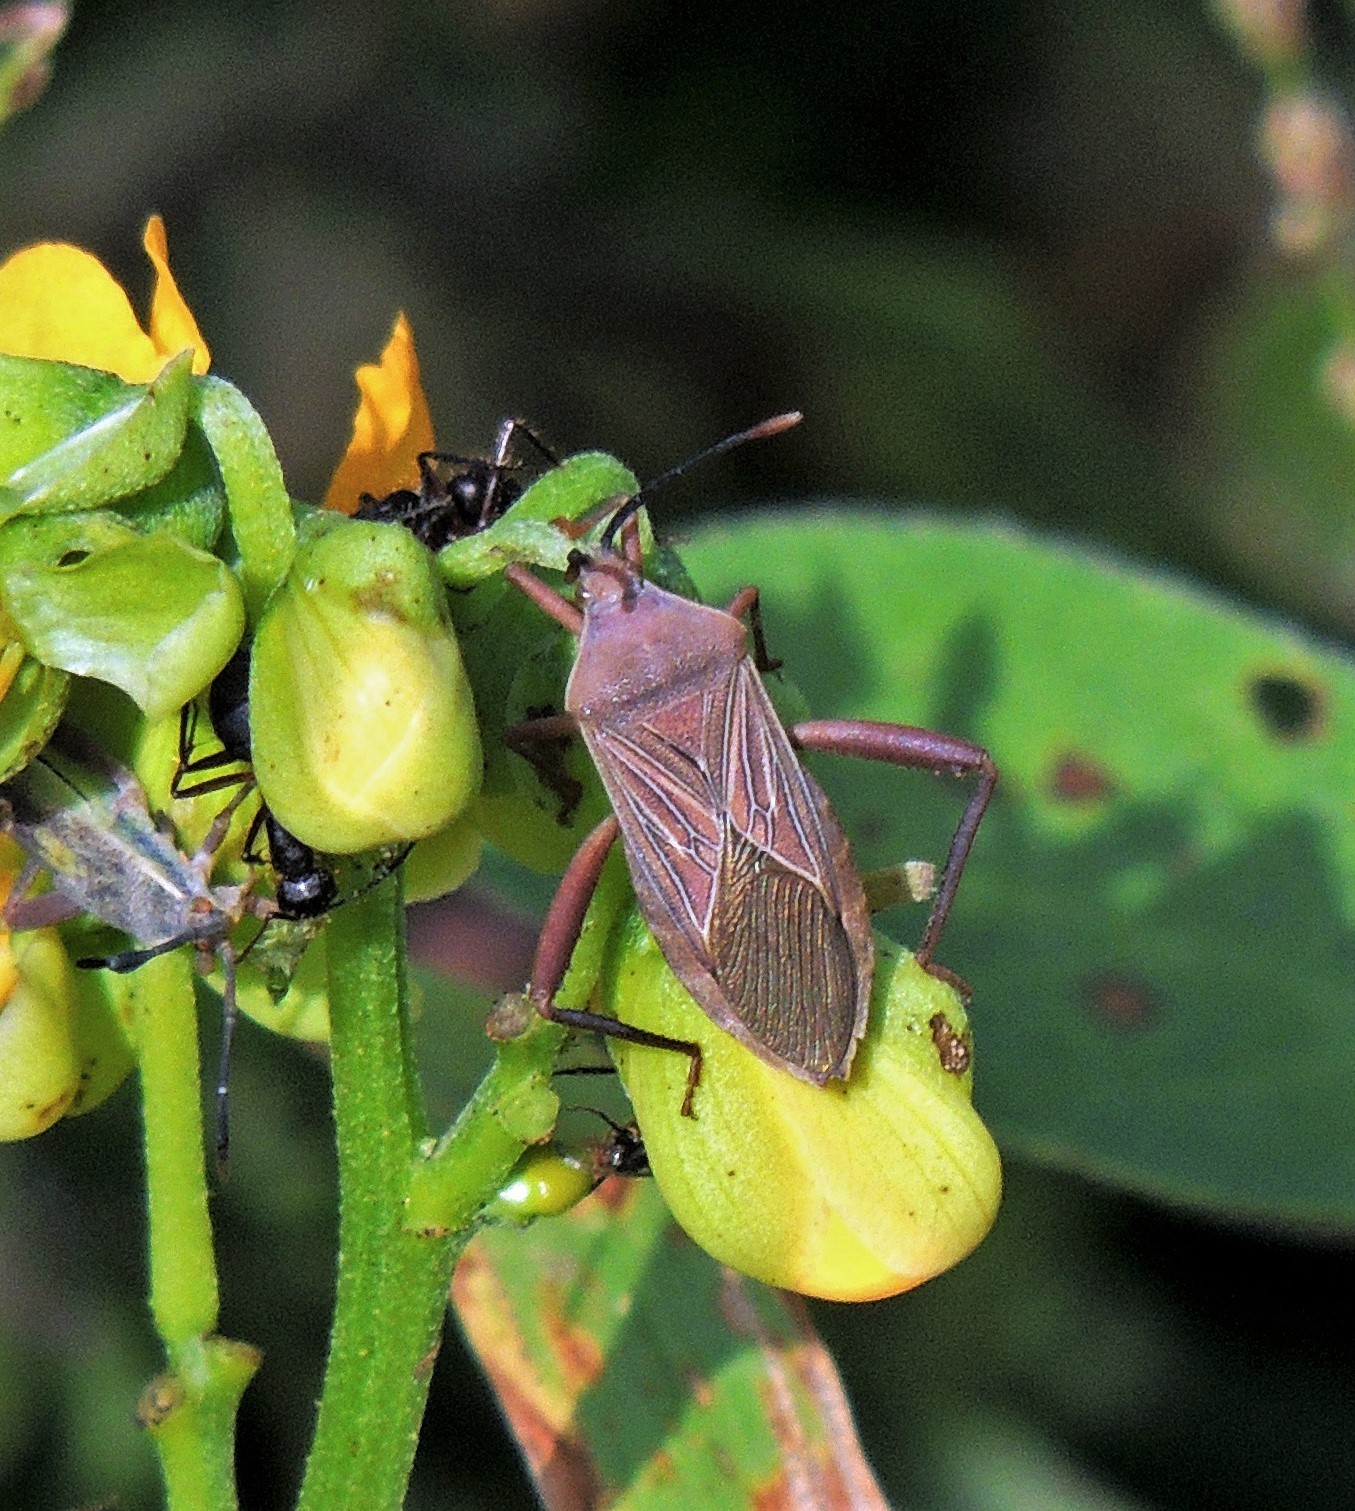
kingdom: Animalia
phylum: Arthropoda
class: Insecta
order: Hemiptera
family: Coreidae
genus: Athaumastus
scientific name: Athaumastus haematicus
